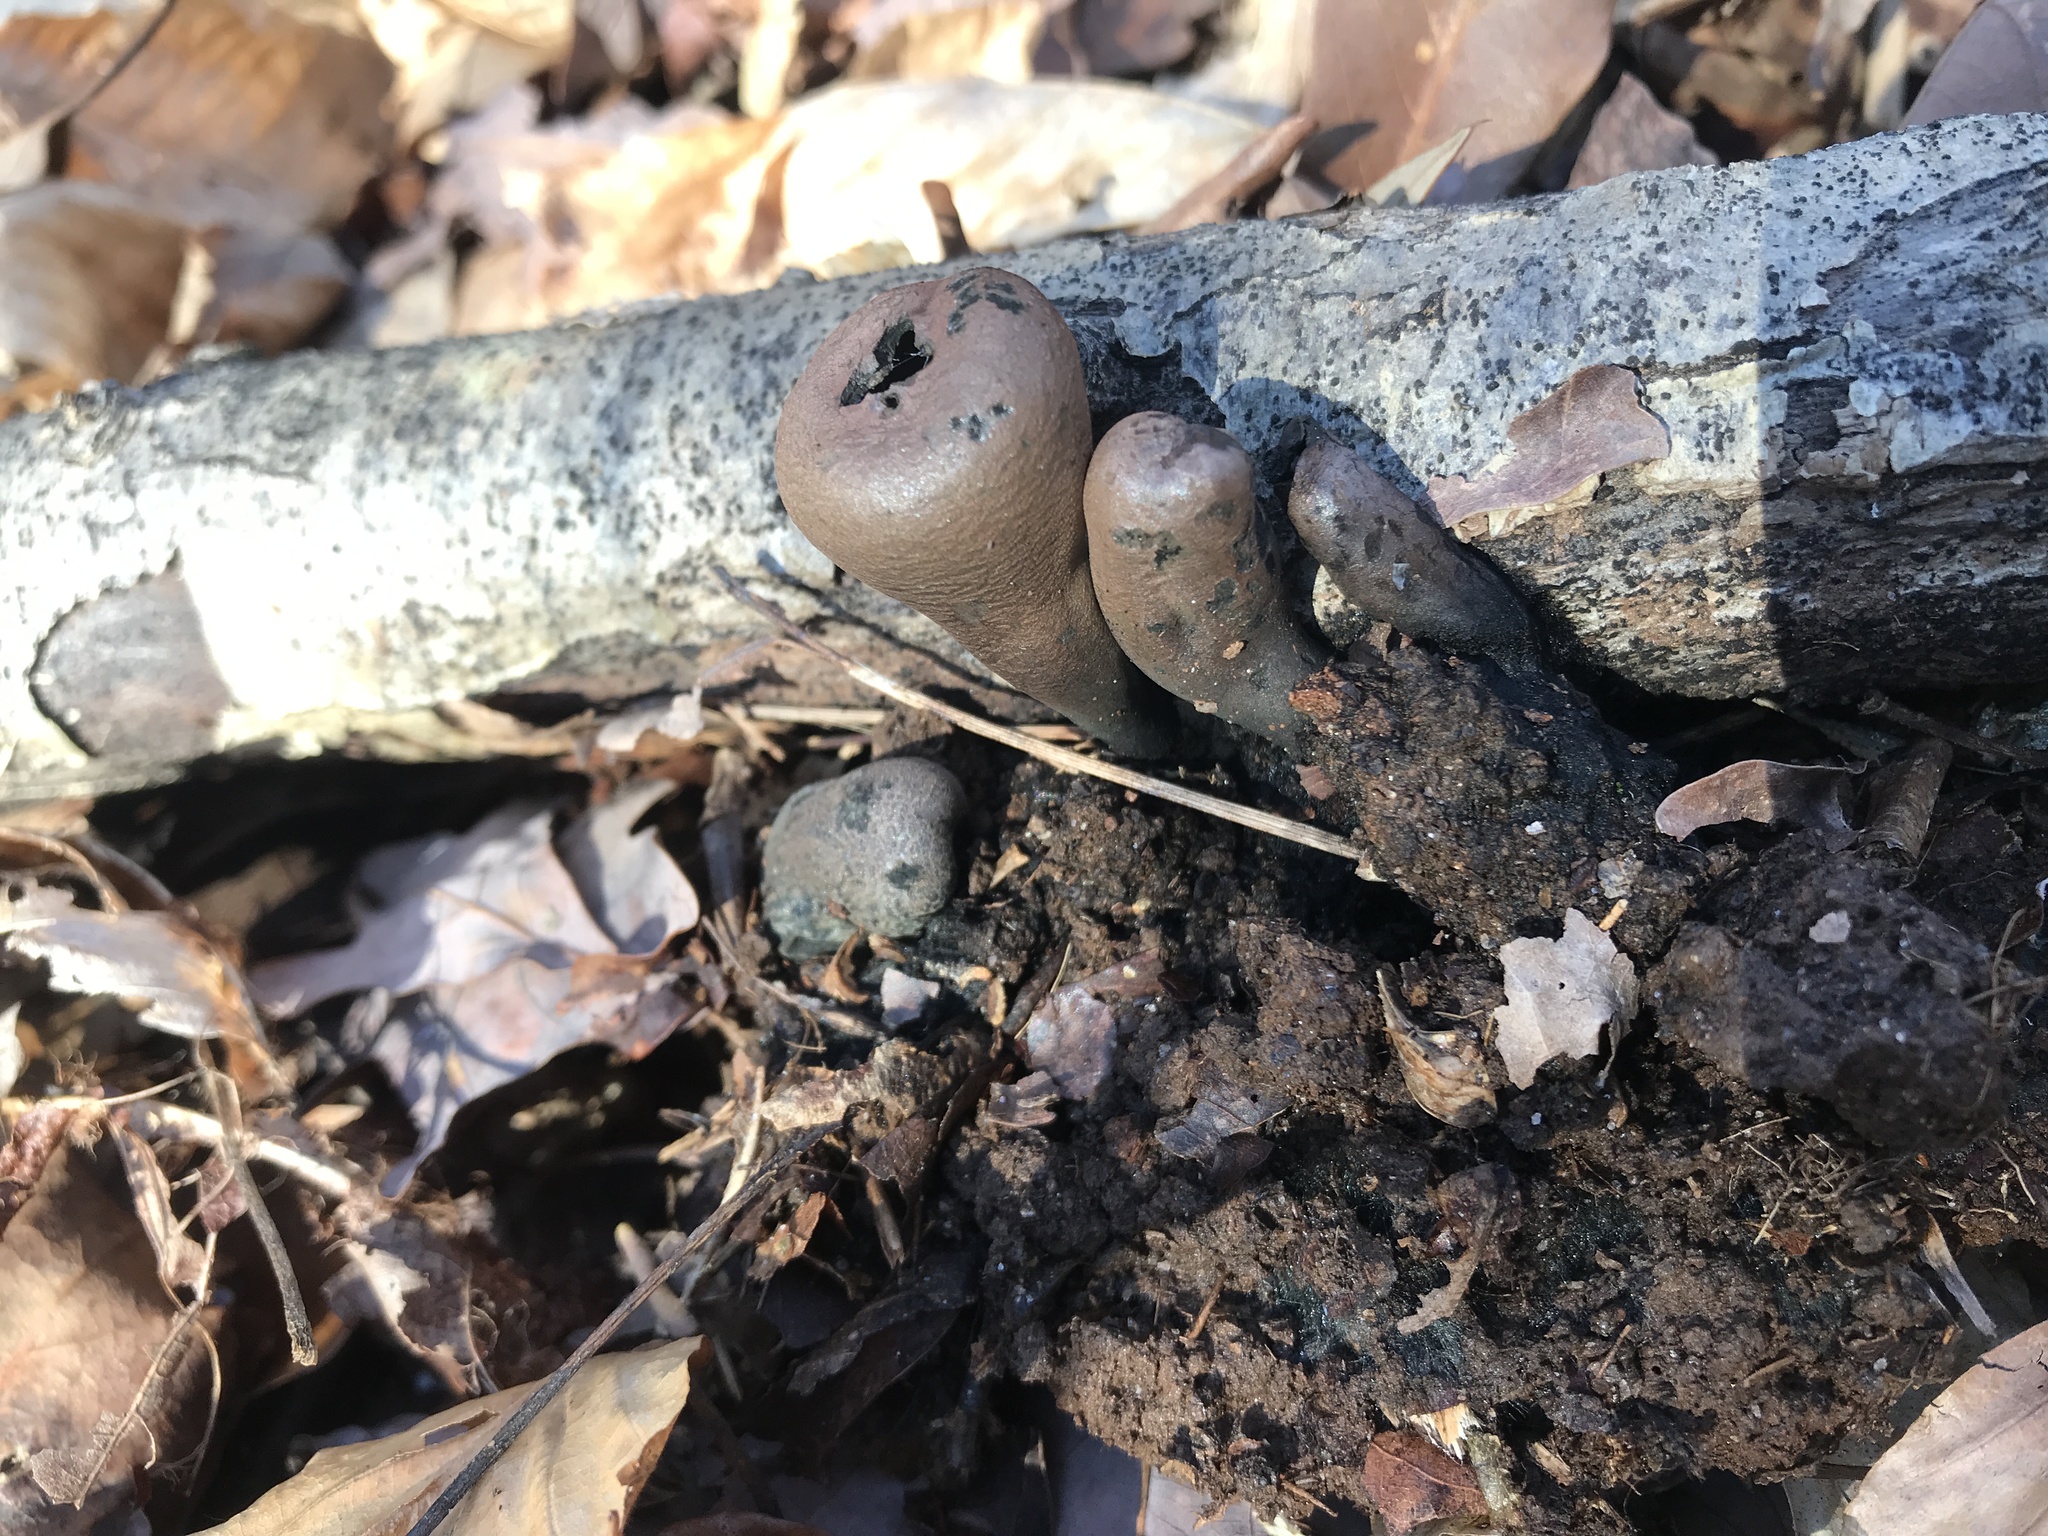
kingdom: Fungi
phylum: Ascomycota
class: Pezizomycetes
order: Pezizales
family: Sarcosomataceae
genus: Urnula
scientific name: Urnula craterium
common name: Devil's urn
